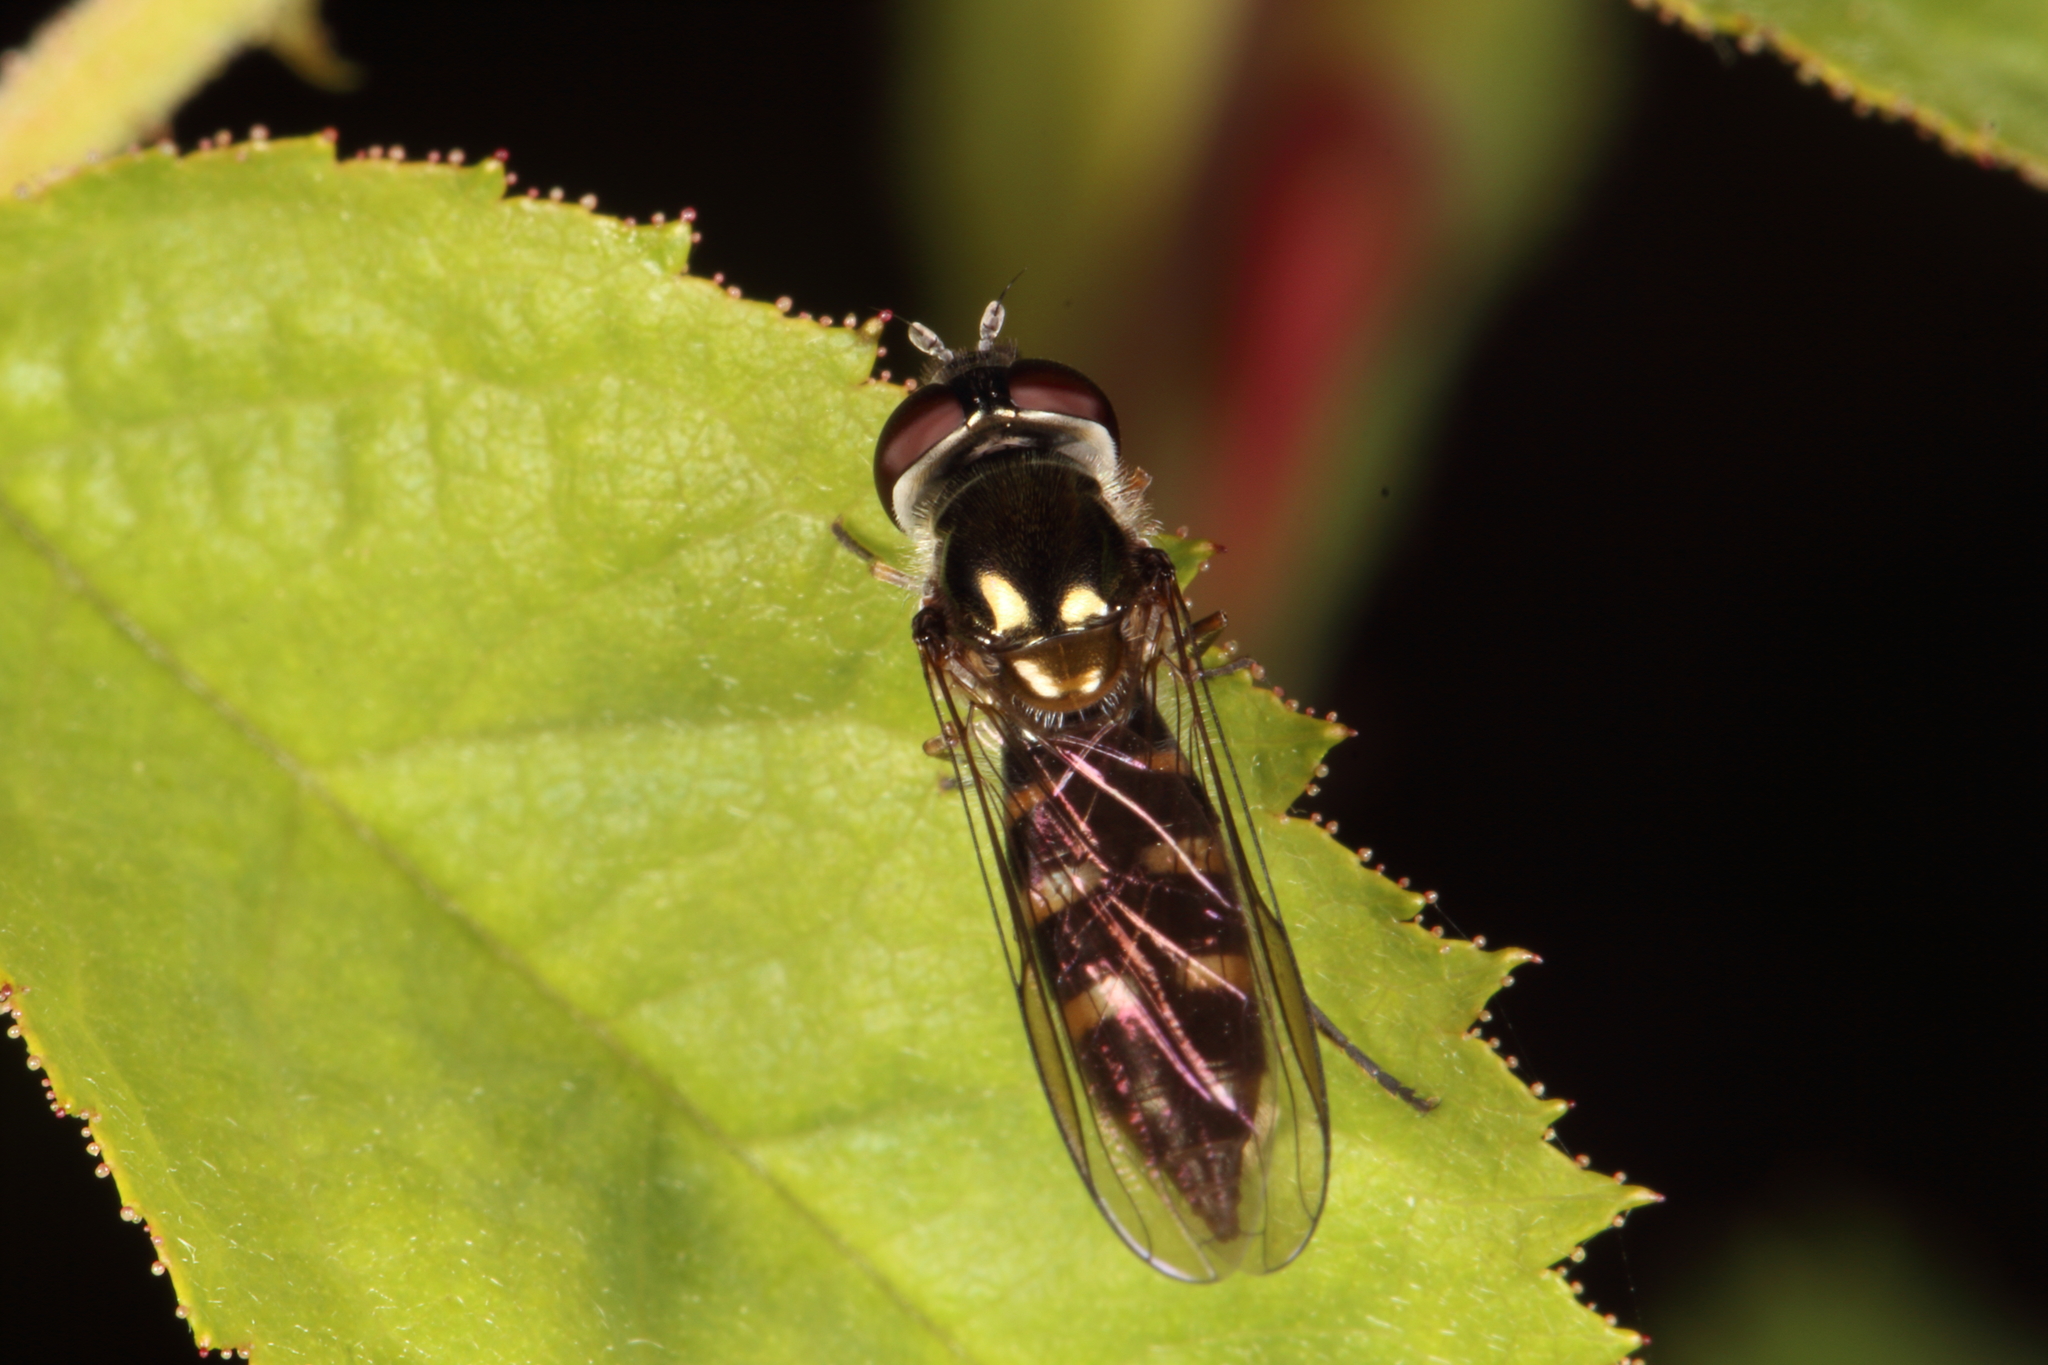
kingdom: Animalia
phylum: Arthropoda
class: Insecta
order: Diptera
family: Syrphidae
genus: Melangyna
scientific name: Melangyna novaezelandiae
